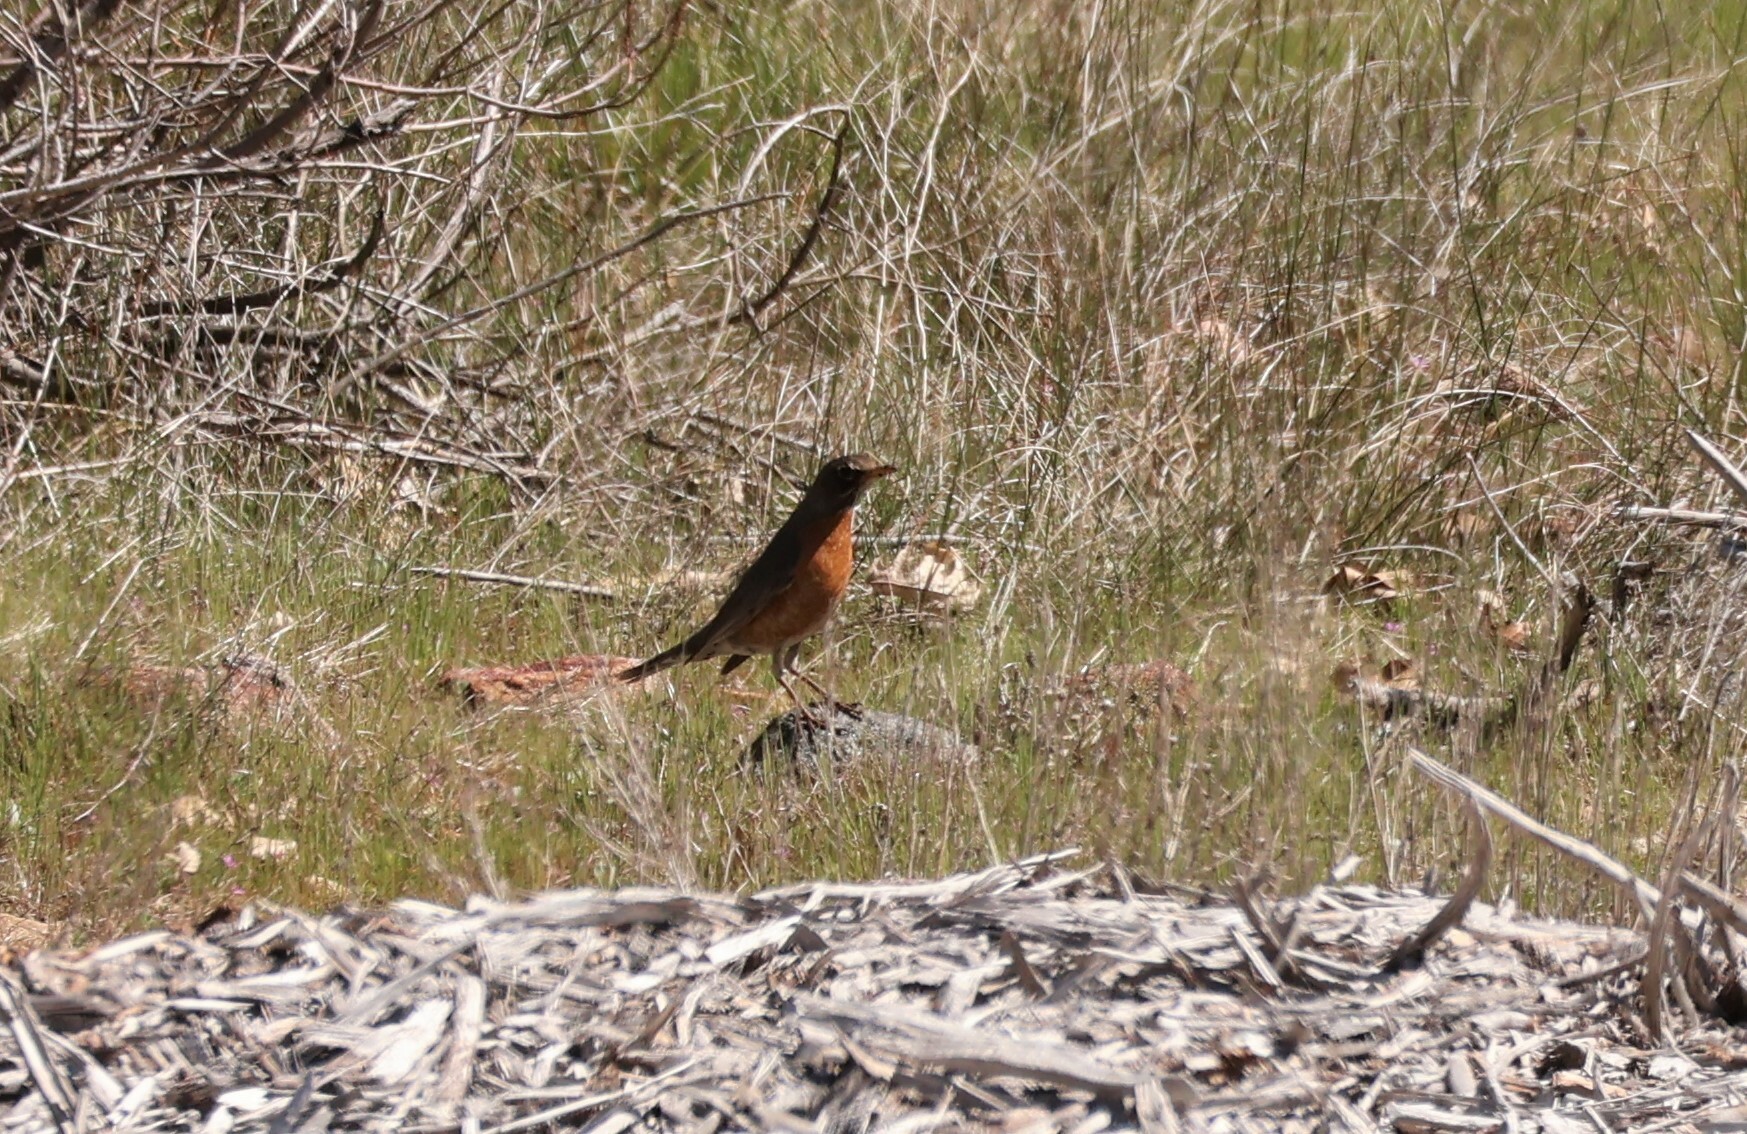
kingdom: Animalia
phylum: Chordata
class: Aves
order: Passeriformes
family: Turdidae
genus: Turdus
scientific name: Turdus migratorius
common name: American robin
